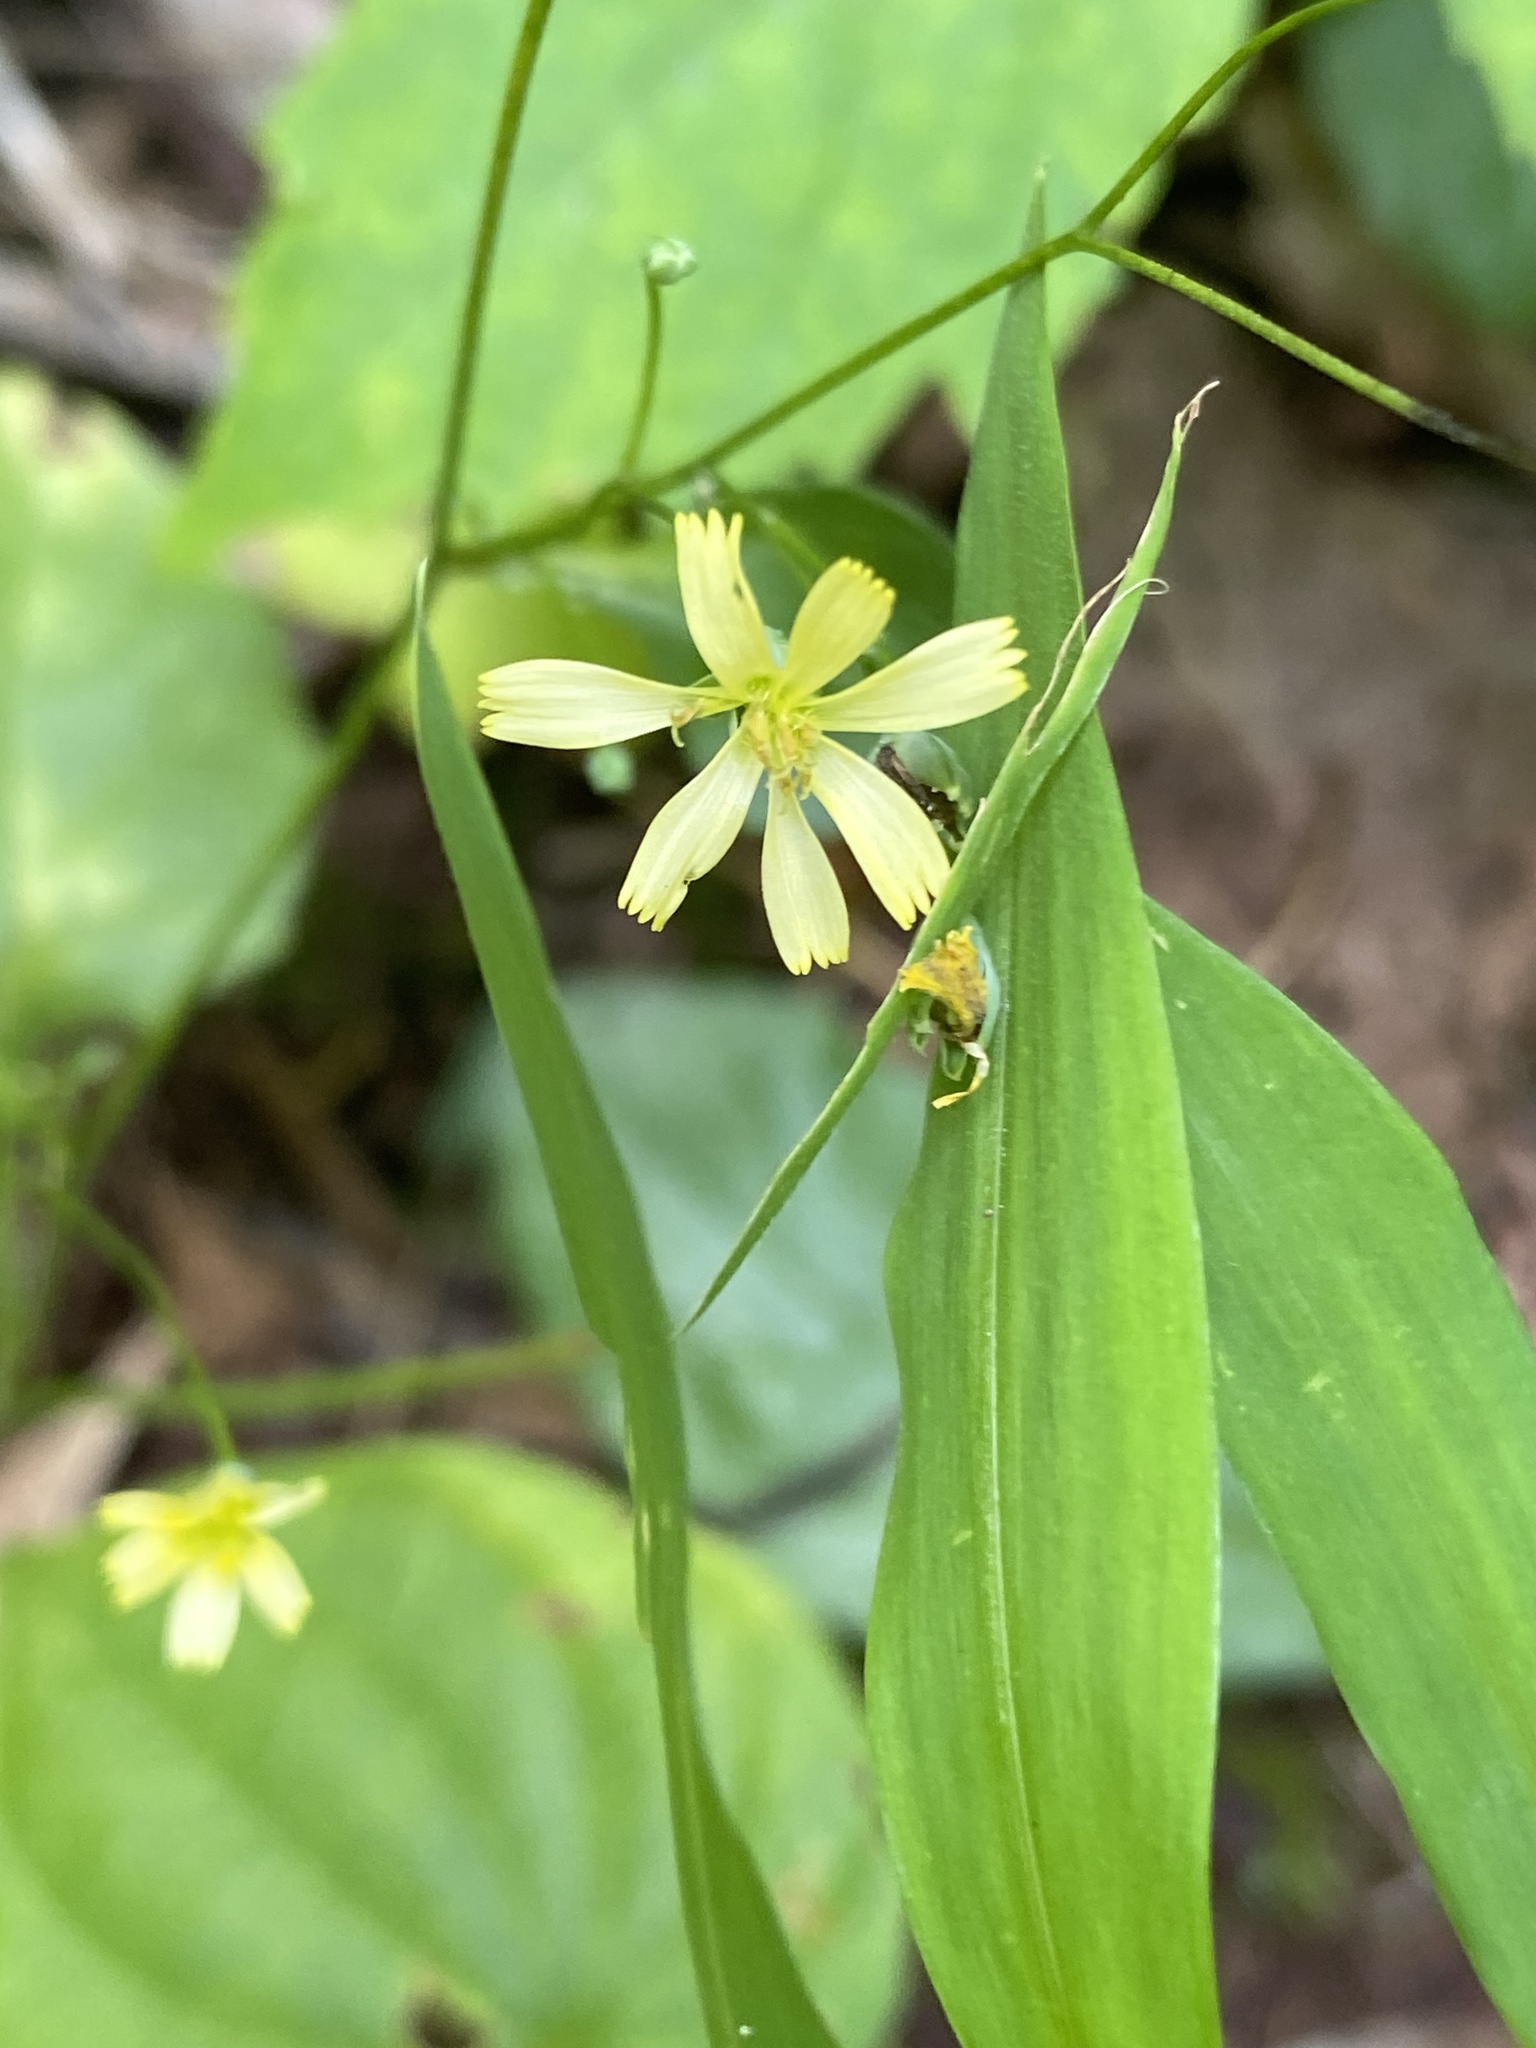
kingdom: Plantae
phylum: Tracheophyta
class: Magnoliopsida
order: Asterales
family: Asteraceae
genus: Lapsana
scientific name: Lapsana communis
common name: Nipplewort
